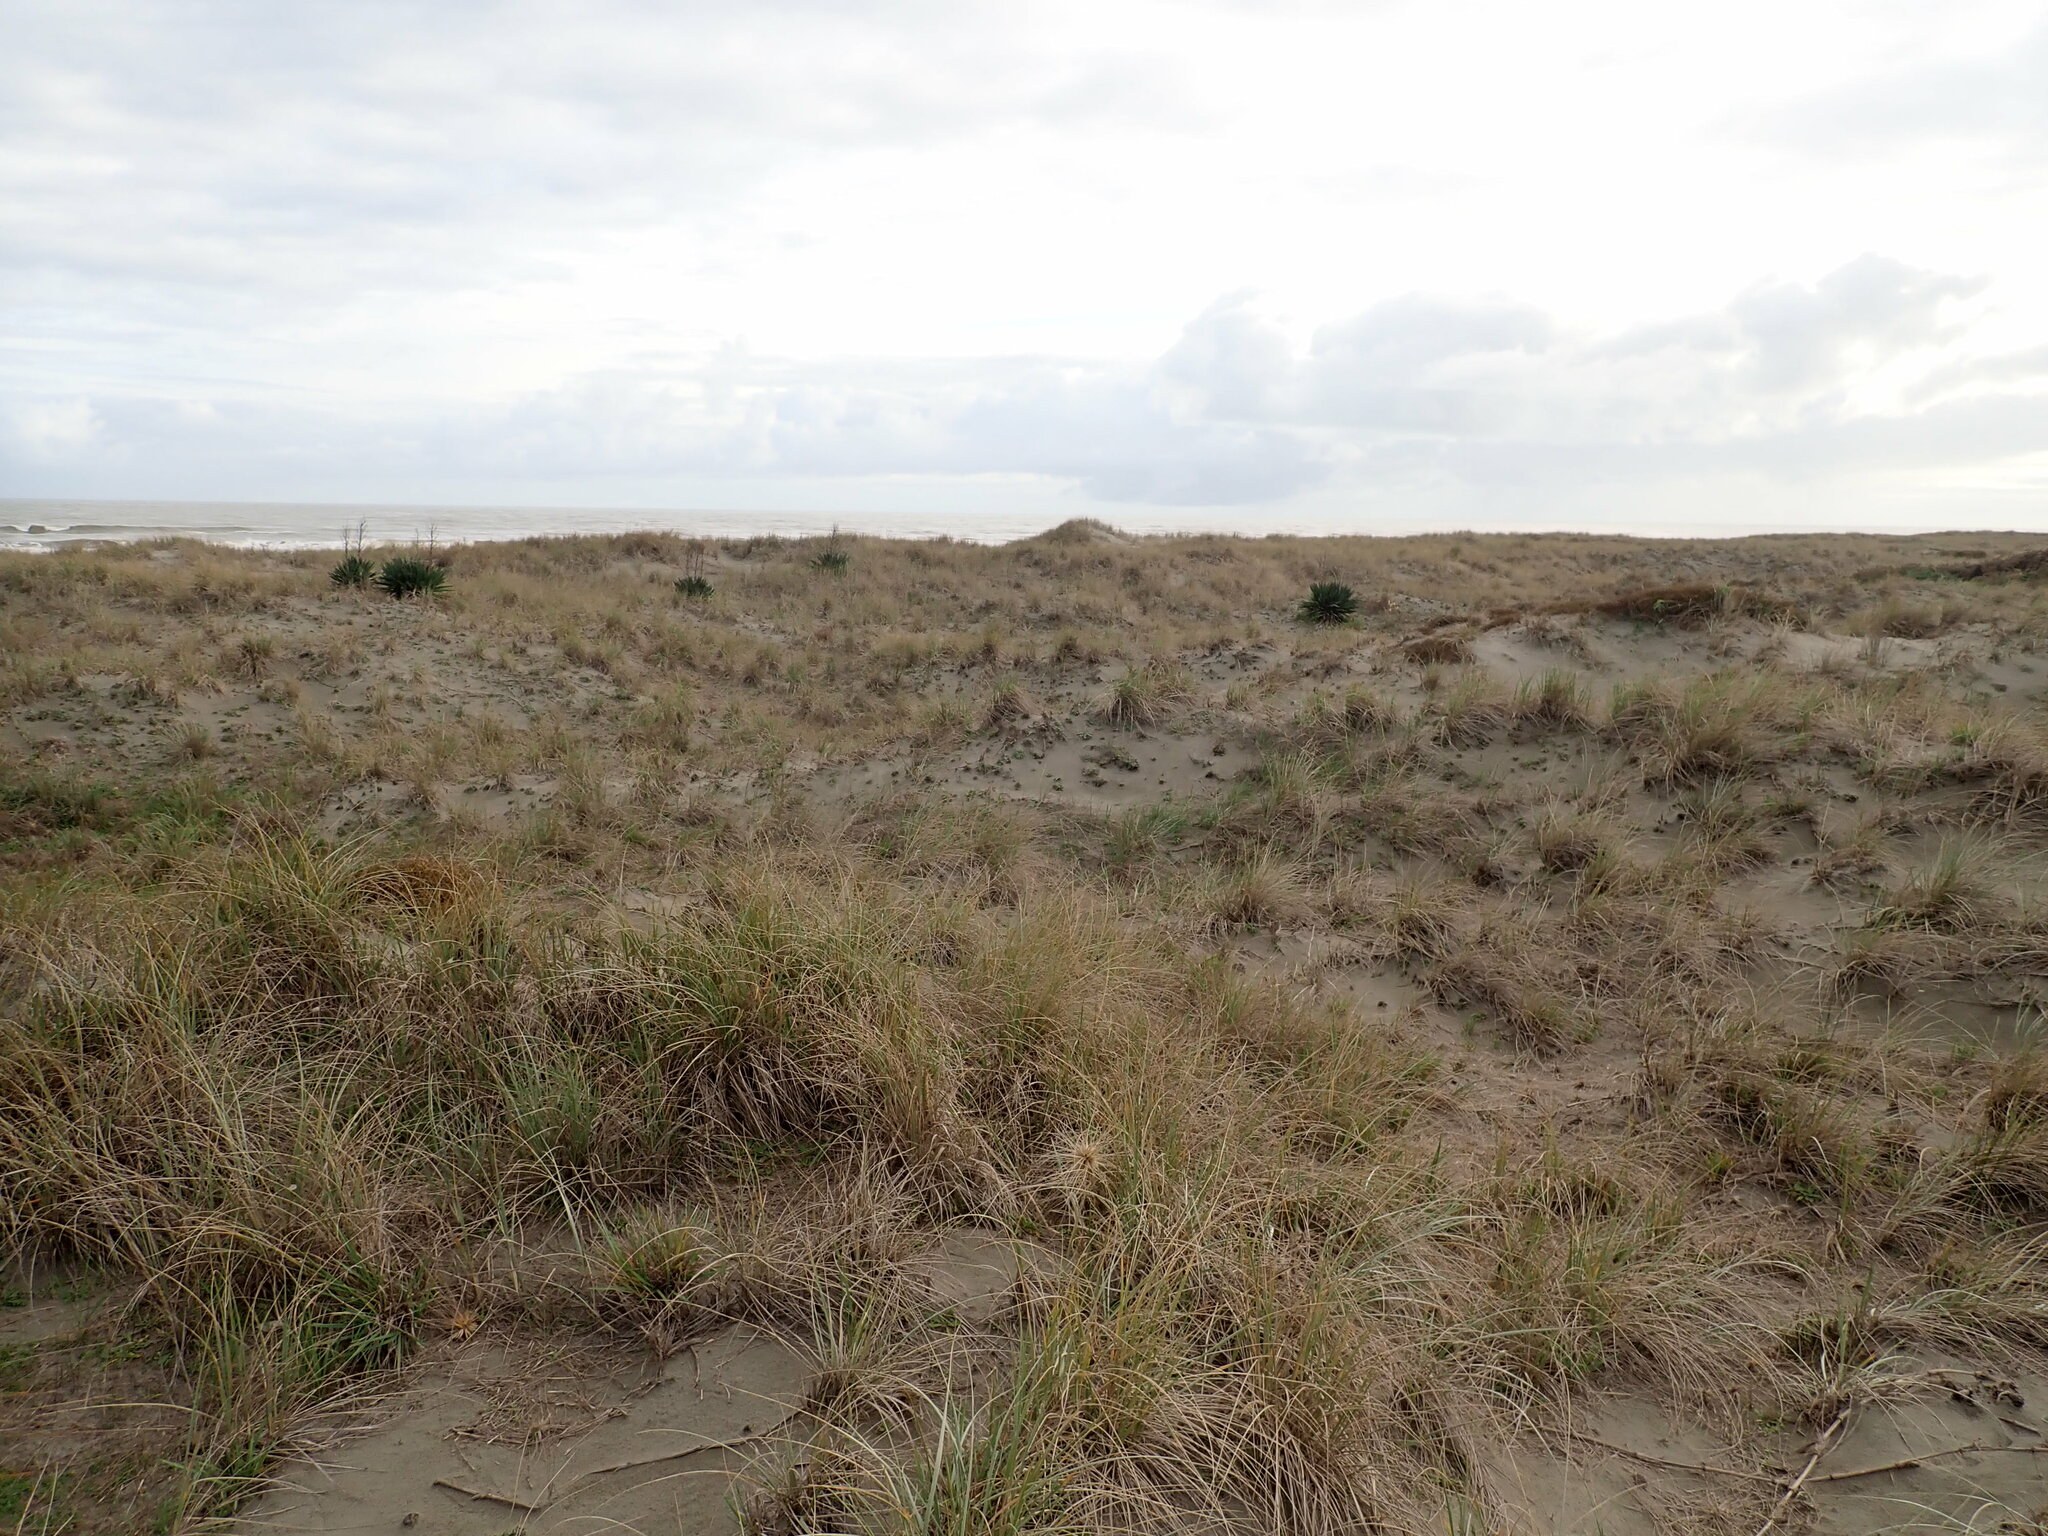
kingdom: Plantae
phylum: Tracheophyta
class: Liliopsida
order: Asparagales
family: Asparagaceae
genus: Yucca
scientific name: Yucca gloriosa
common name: Spanish-dagger
